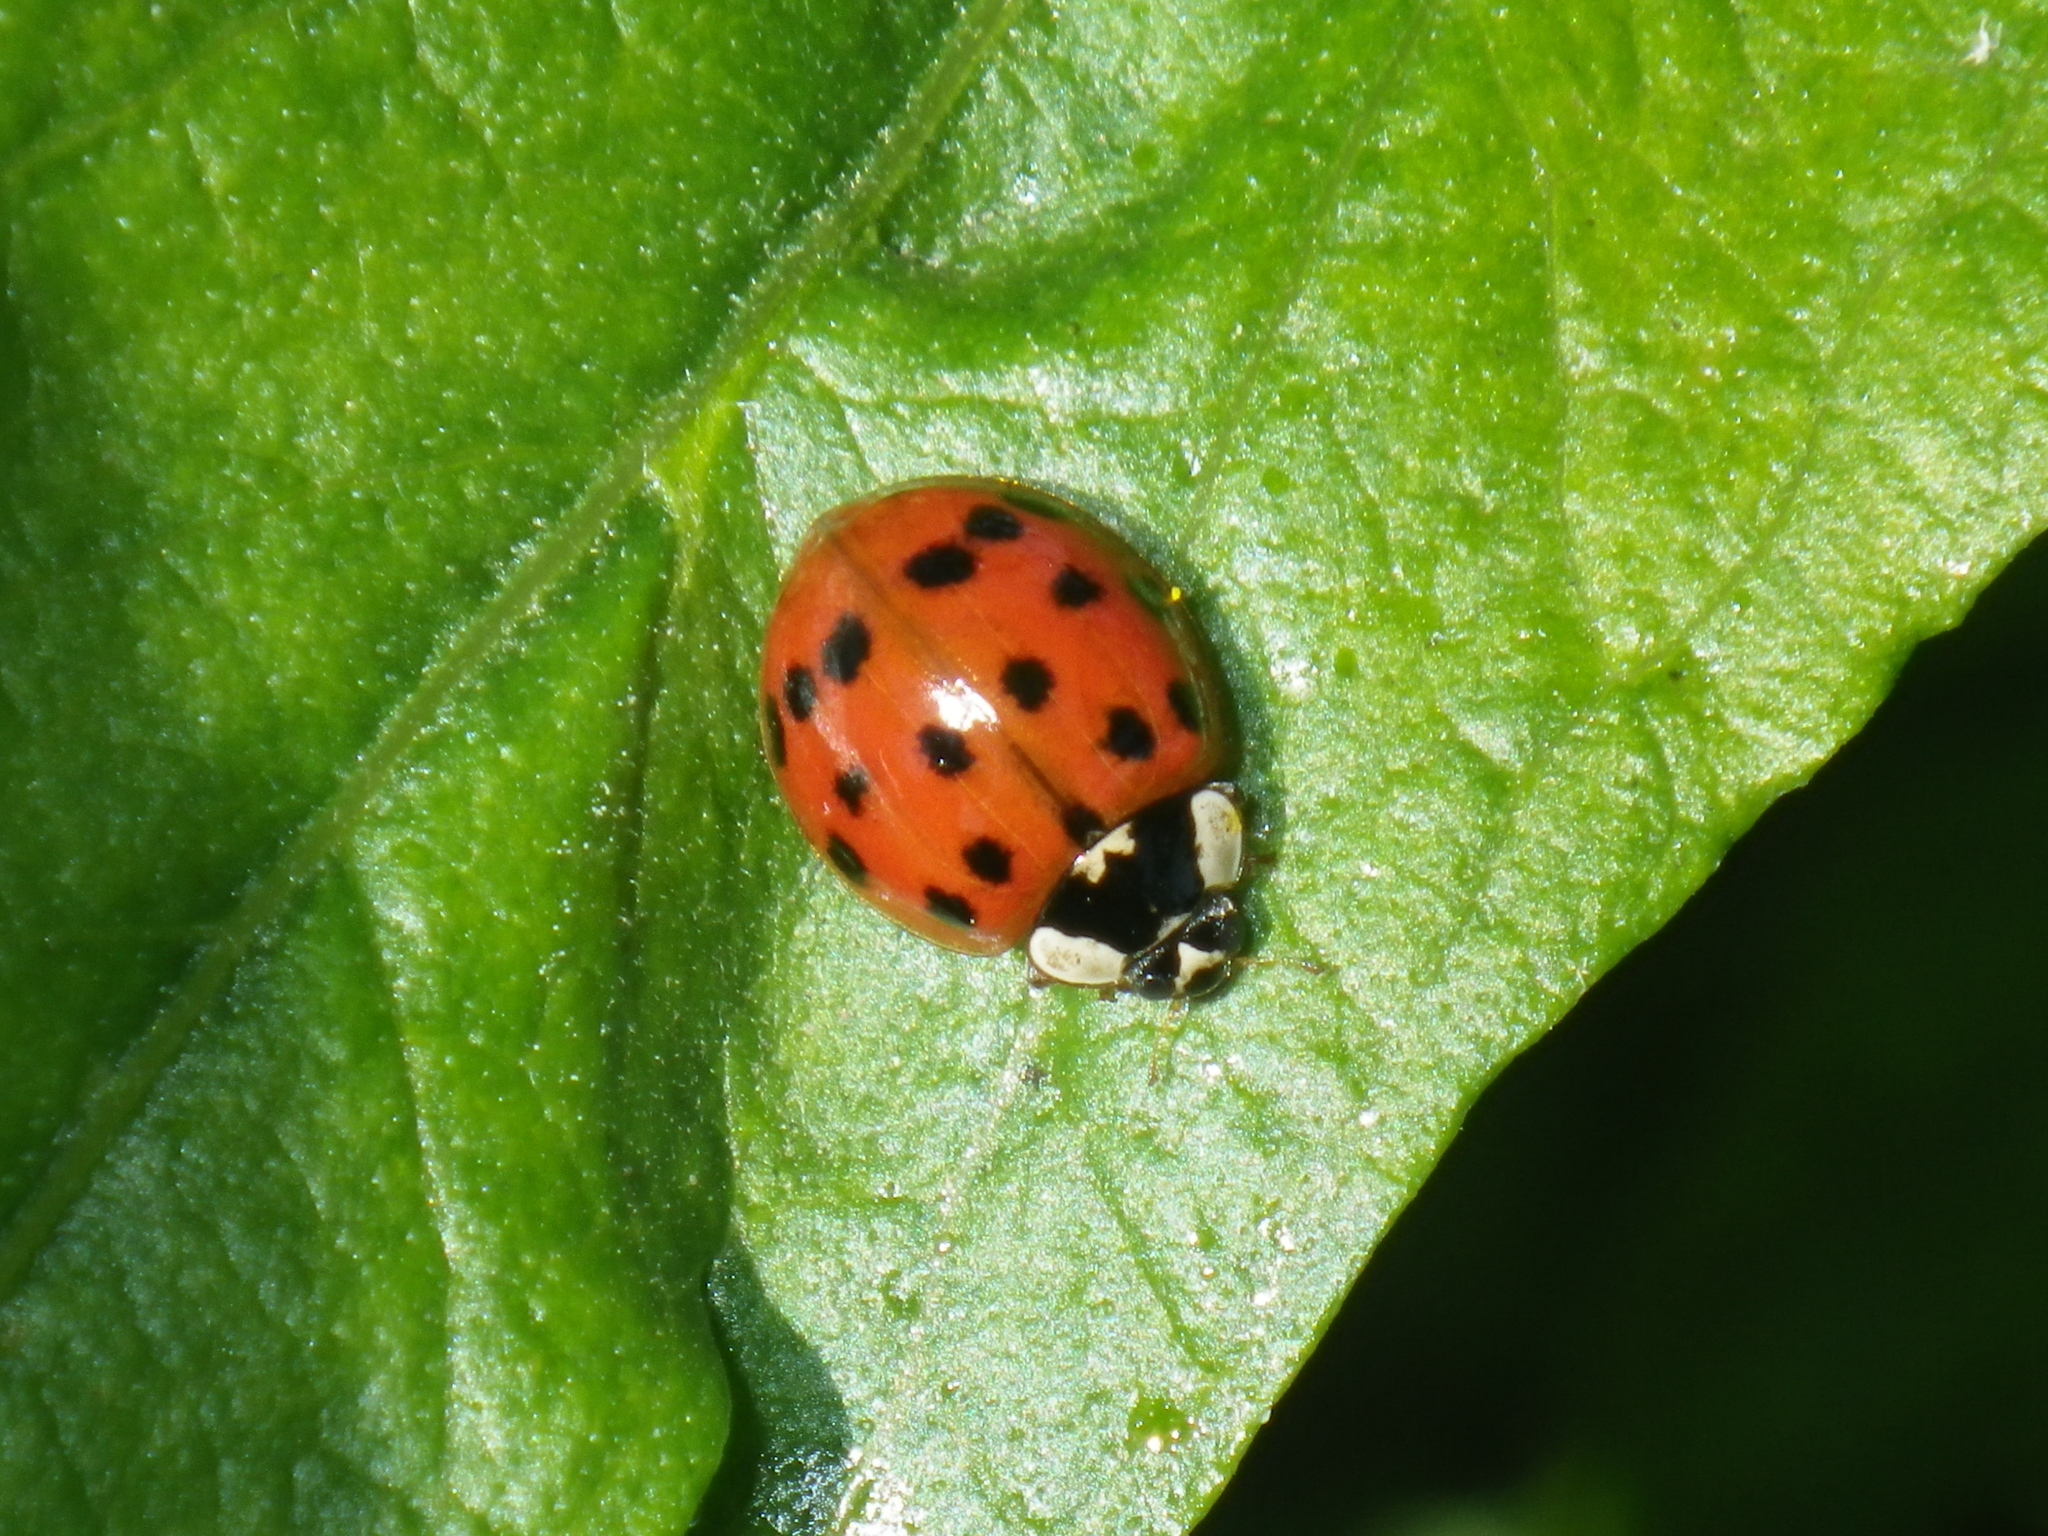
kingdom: Animalia
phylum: Arthropoda
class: Insecta
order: Coleoptera
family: Coccinellidae
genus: Harmonia
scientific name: Harmonia axyridis
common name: Harlequin ladybird
